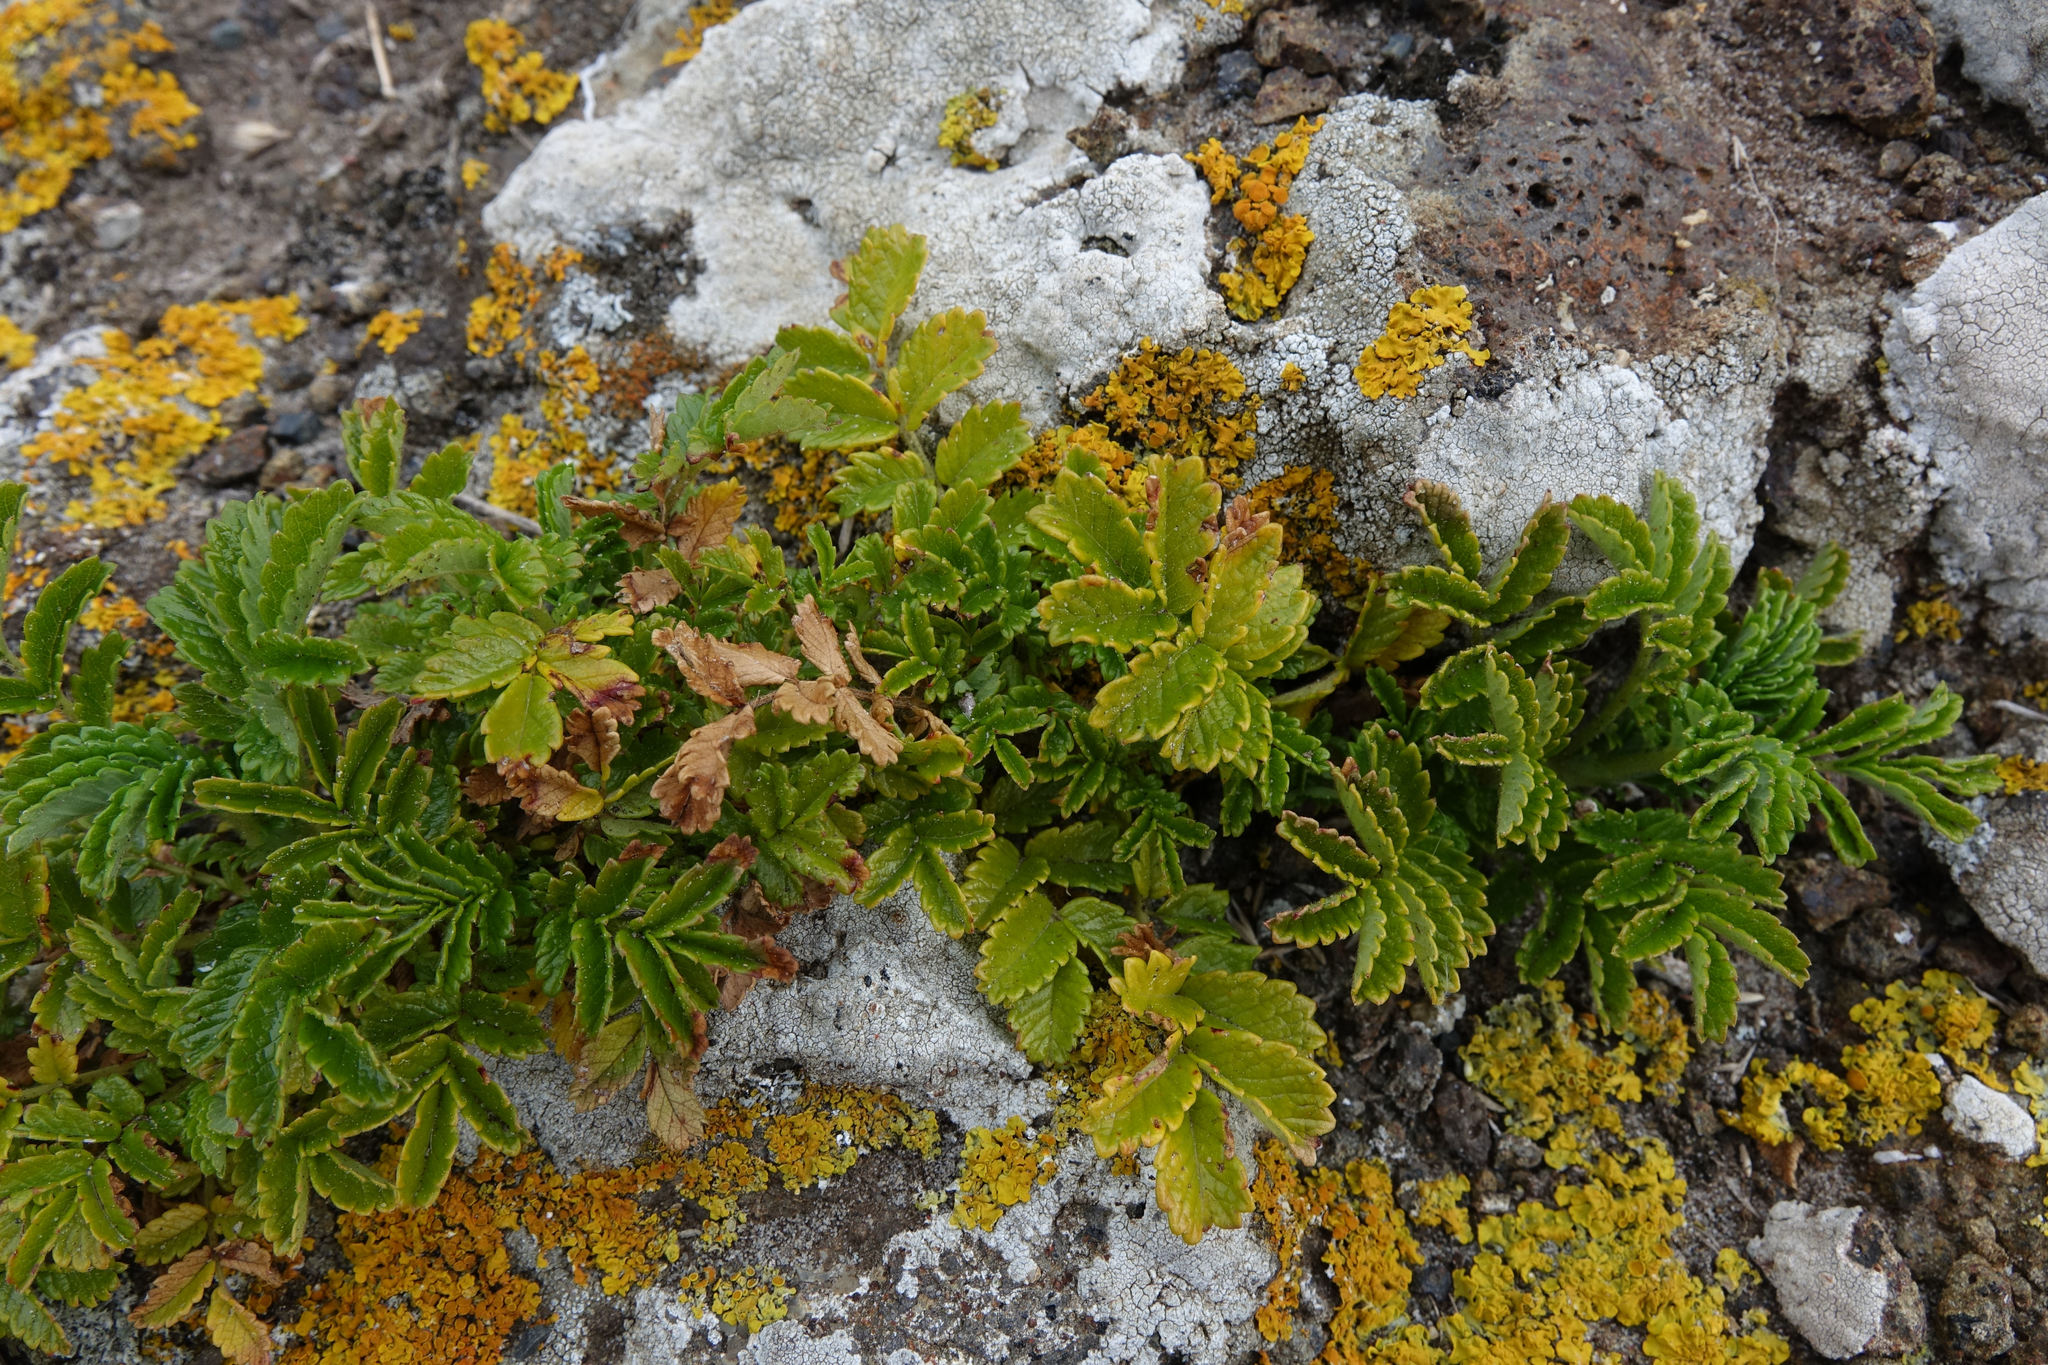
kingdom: Plantae
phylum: Tracheophyta
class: Magnoliopsida
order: Rosales
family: Rosaceae
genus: Acaena
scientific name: Acaena novae-zelandiae
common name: Pirri-pirri-bur
